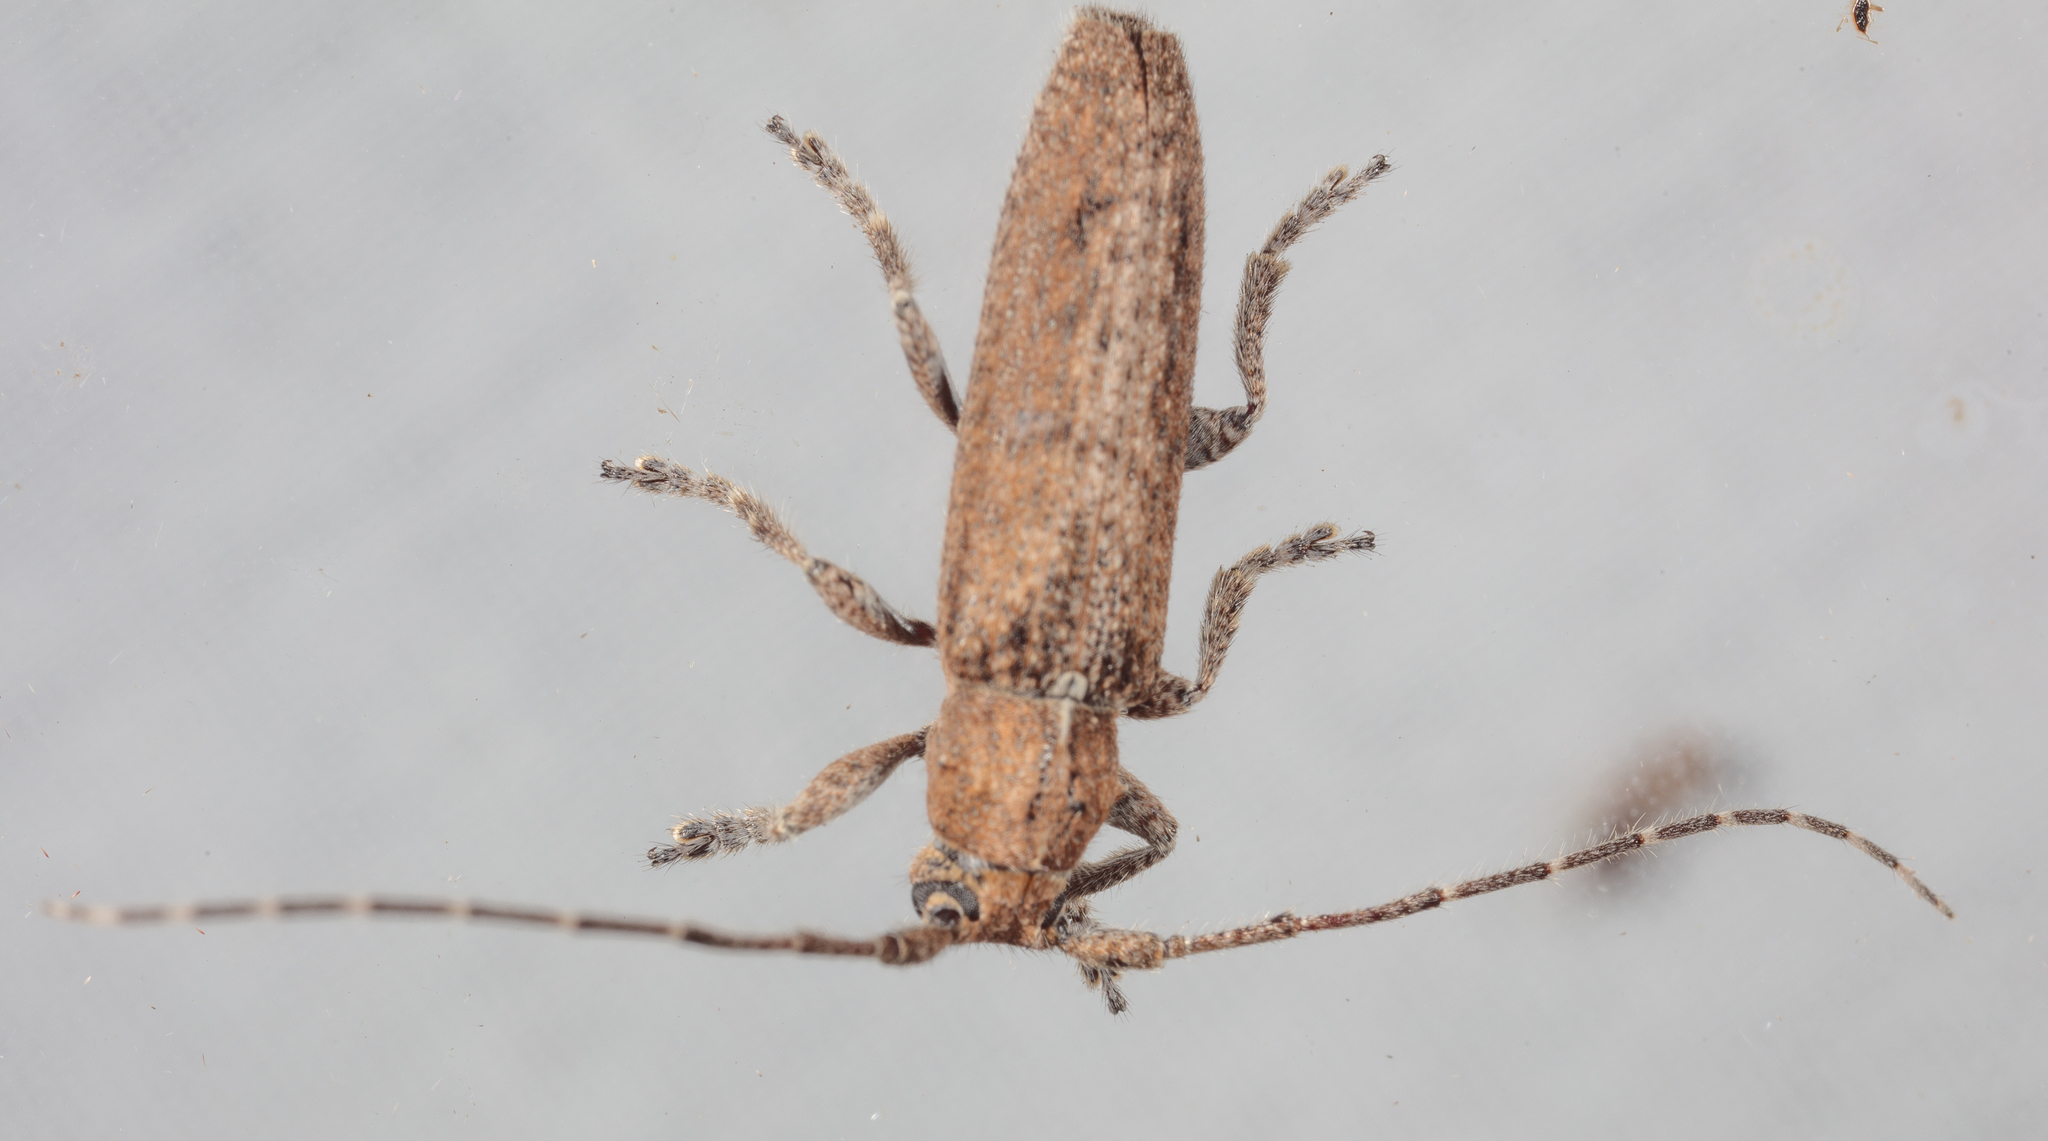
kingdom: Animalia
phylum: Arthropoda
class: Insecta
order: Coleoptera
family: Cerambycidae
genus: Ataxia
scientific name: Ataxia crypta
